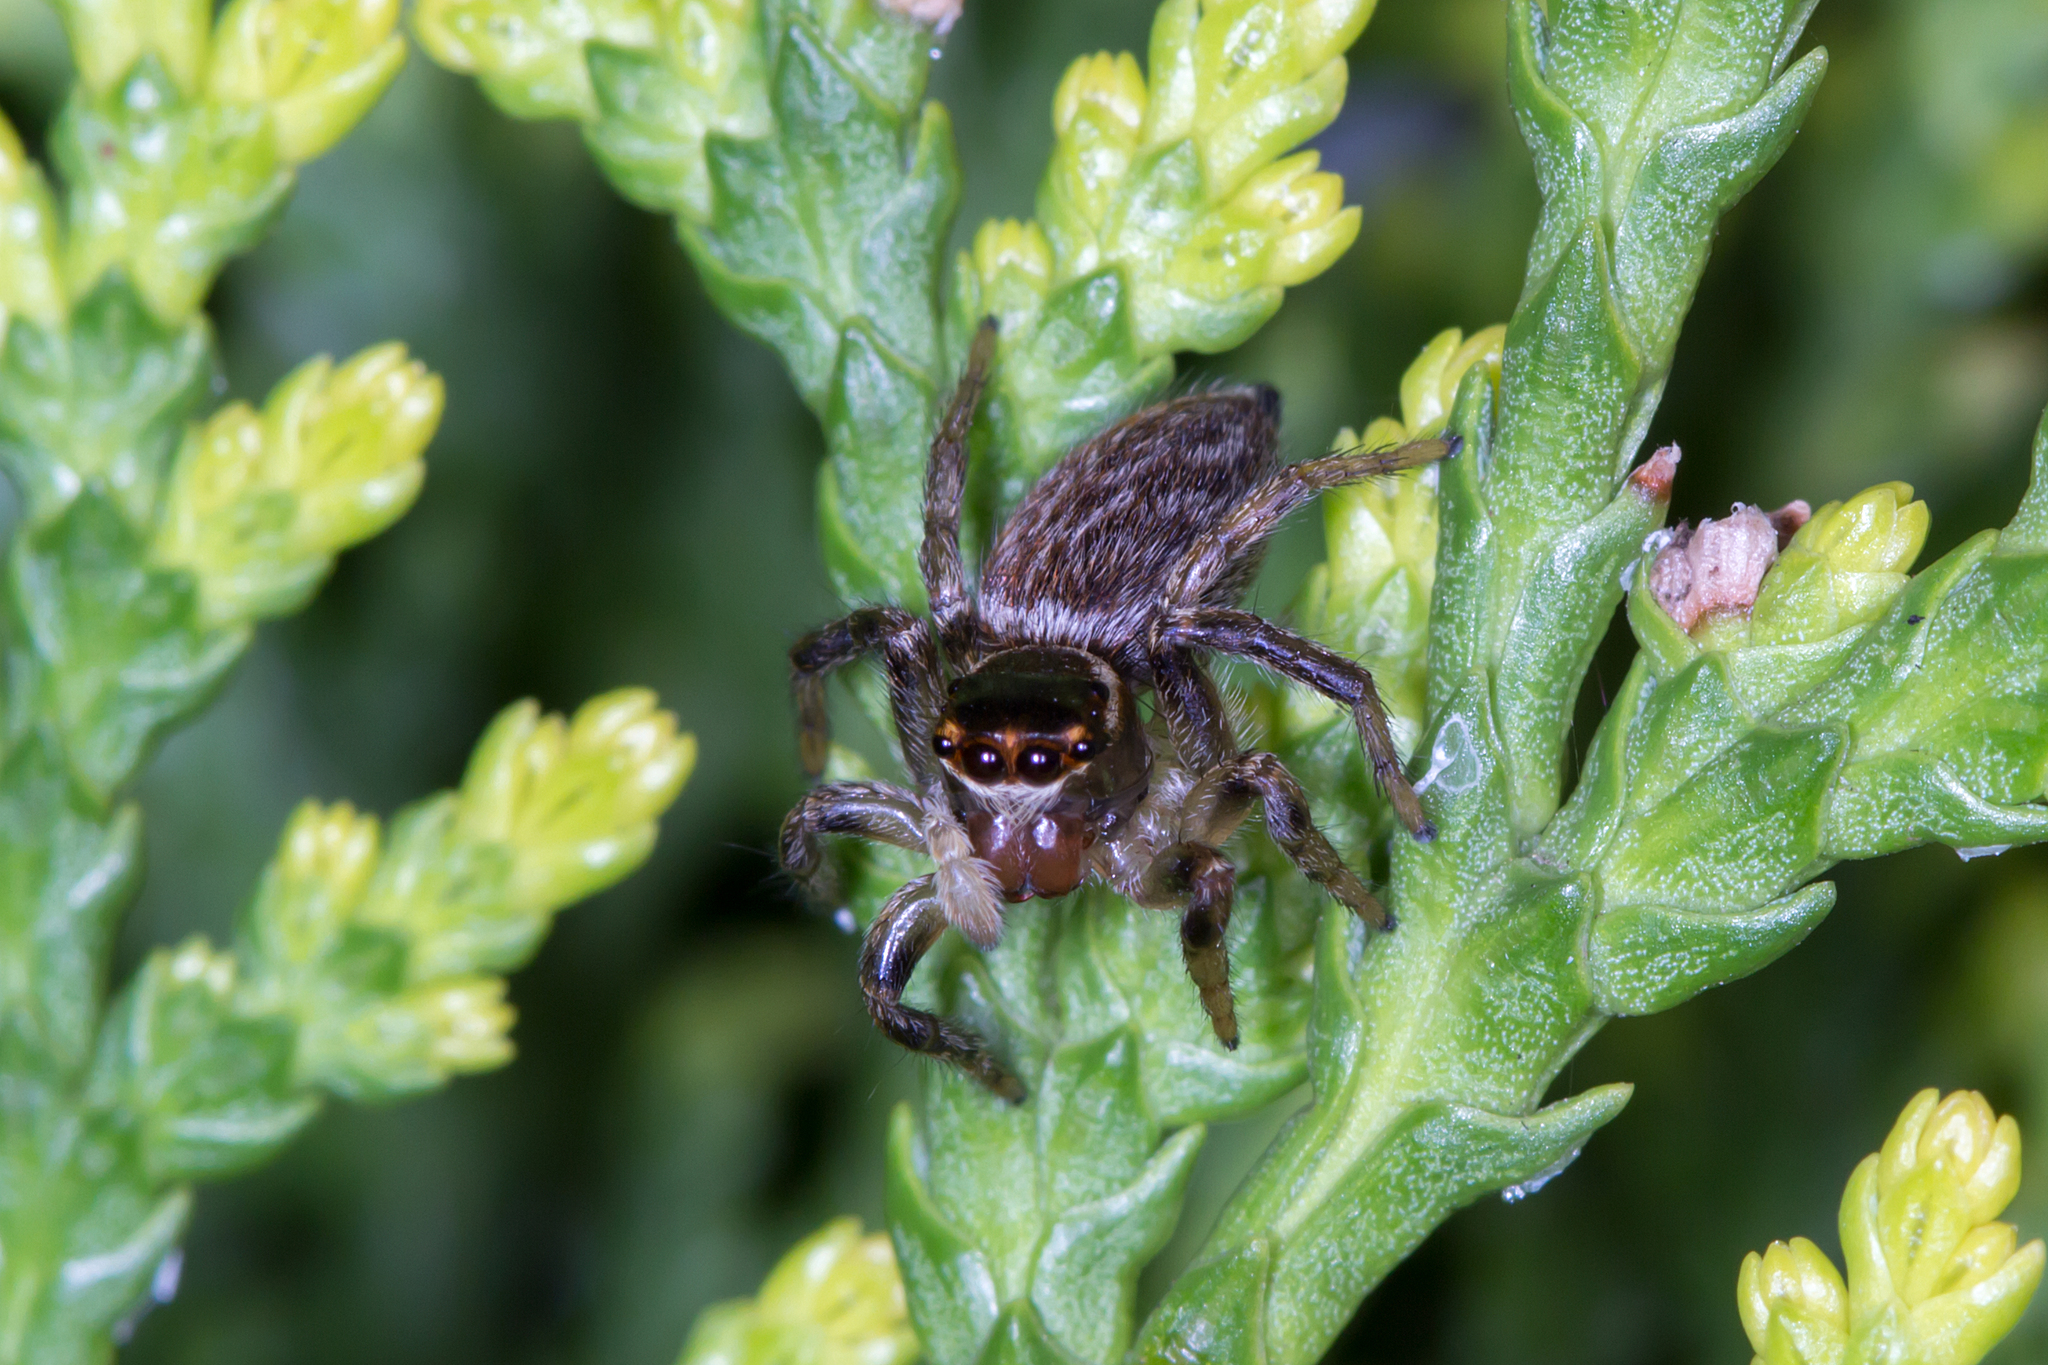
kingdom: Animalia
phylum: Arthropoda
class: Arachnida
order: Araneae
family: Salticidae
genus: Maratus
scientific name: Maratus griseus
